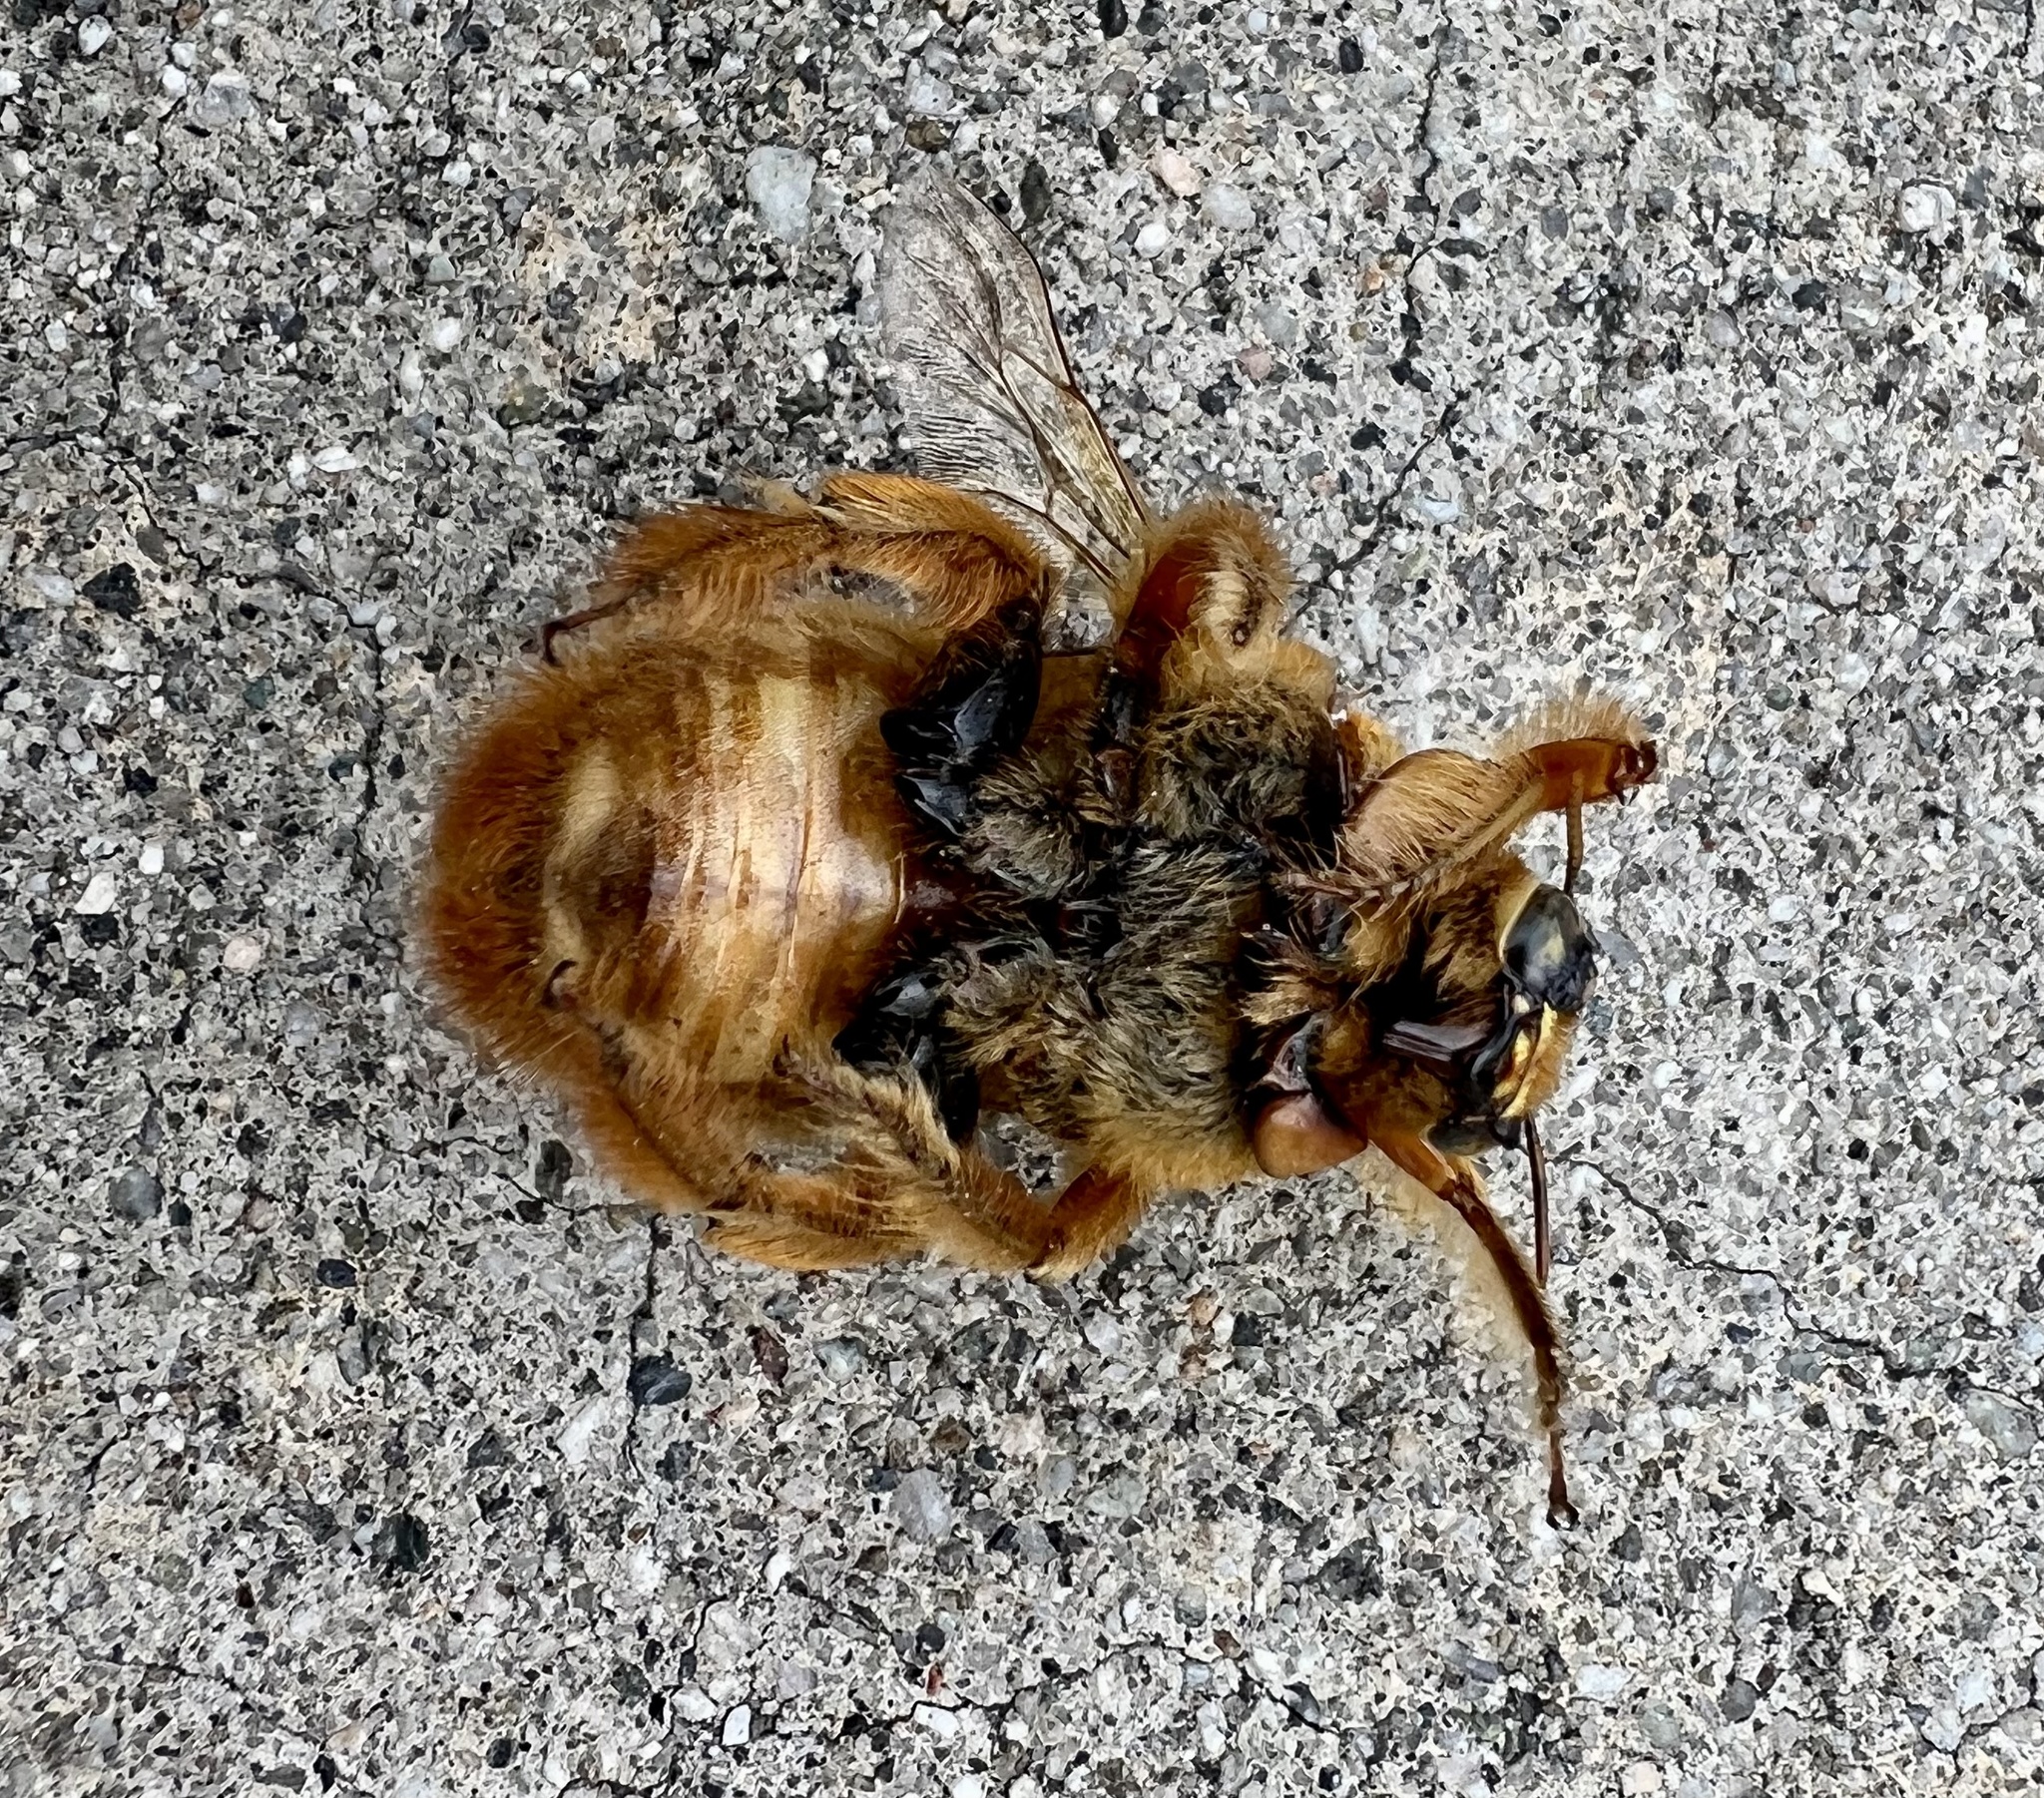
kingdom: Animalia
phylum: Arthropoda
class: Insecta
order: Hymenoptera
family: Apidae
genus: Xylocopa
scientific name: Xylocopa sonorina
